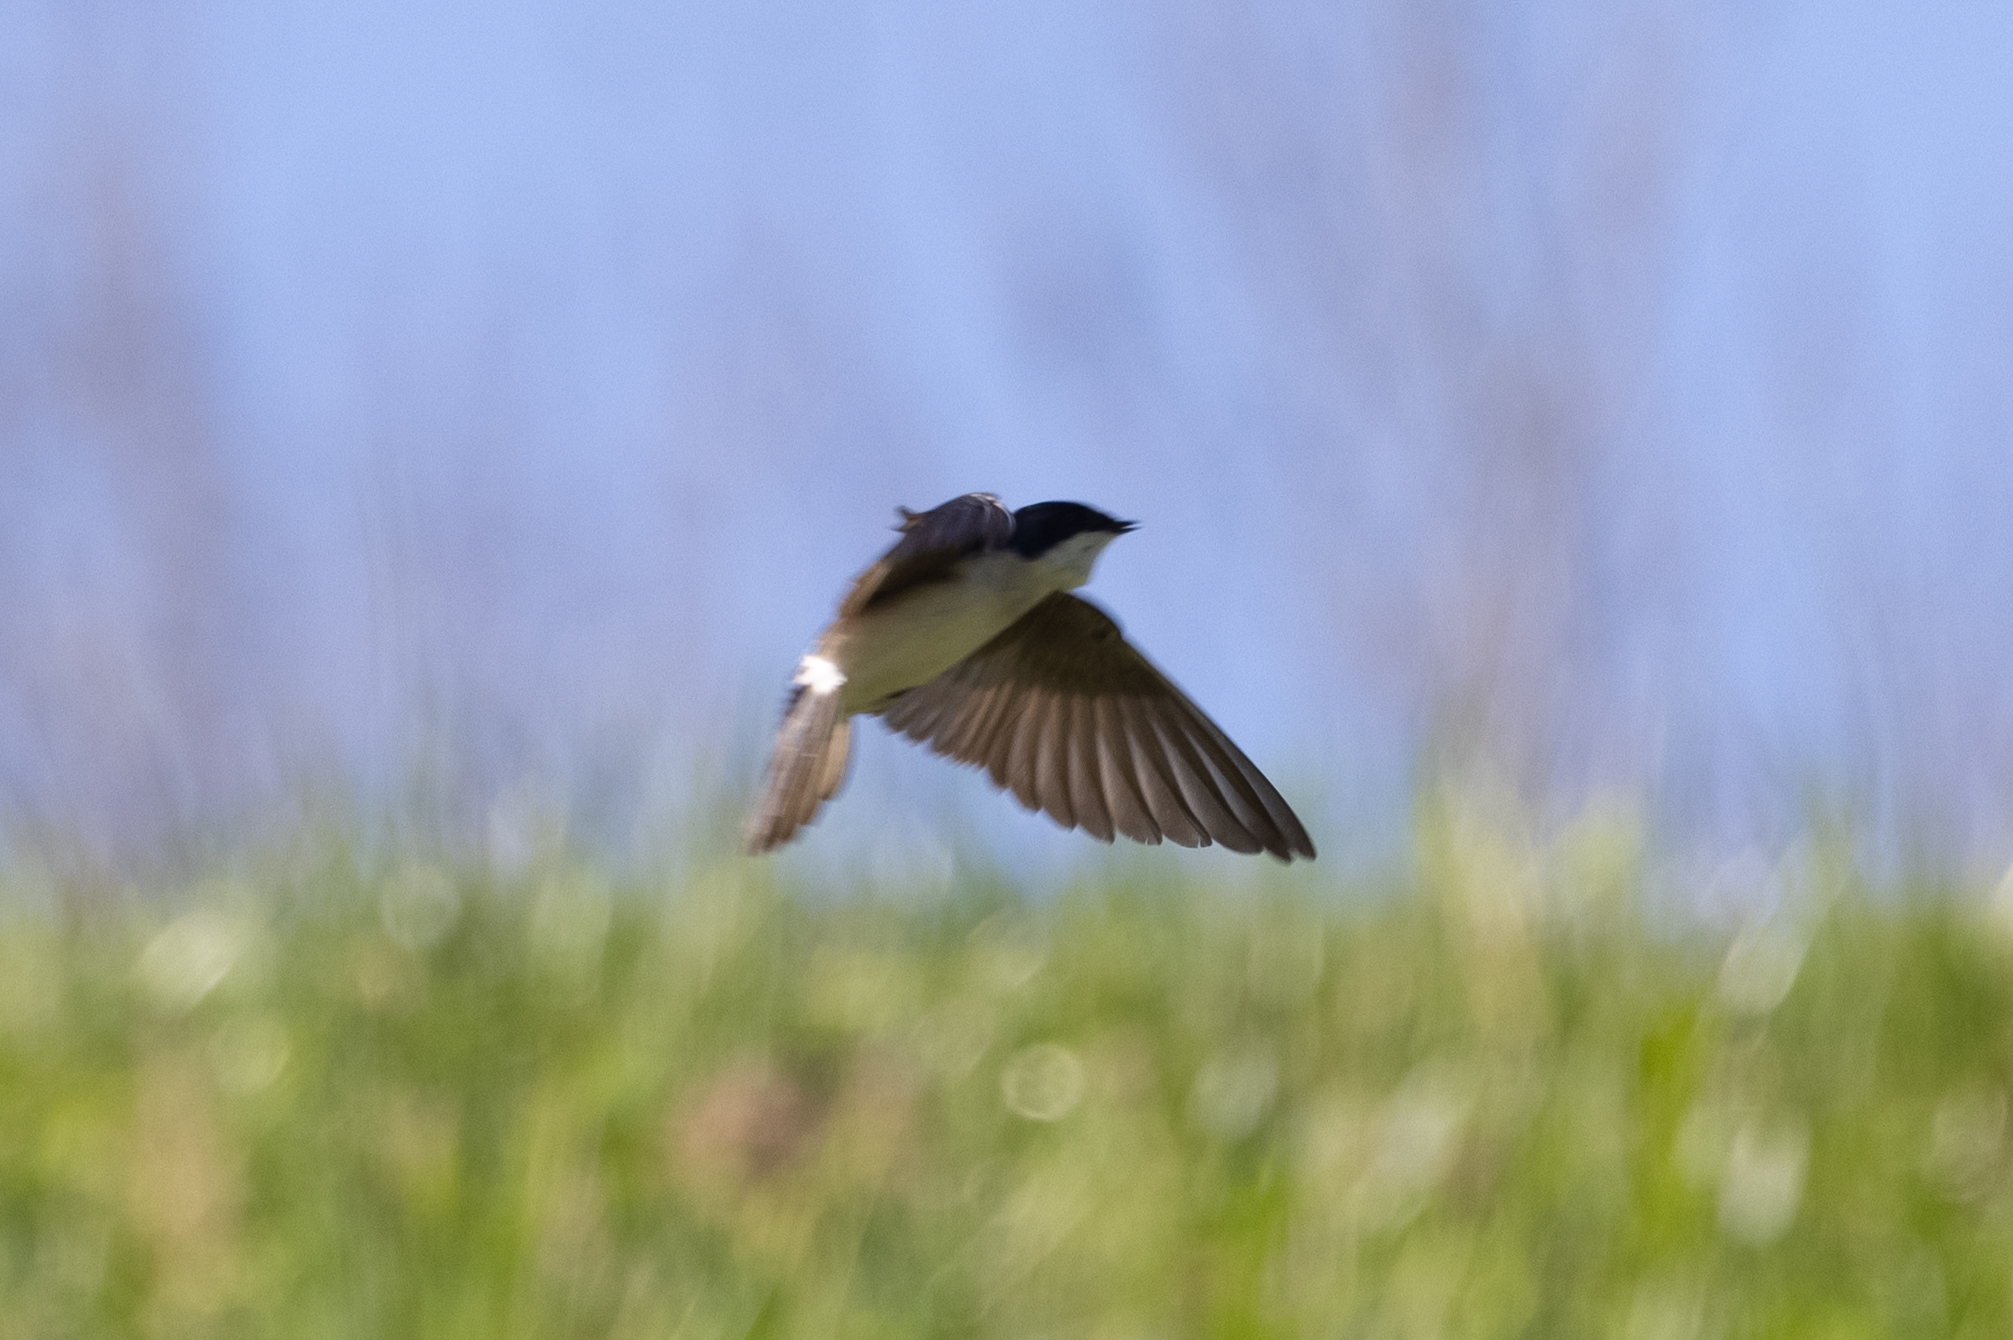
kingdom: Animalia
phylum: Chordata
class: Aves
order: Passeriformes
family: Hirundinidae
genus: Tachycineta
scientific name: Tachycineta bicolor
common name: Tree swallow
